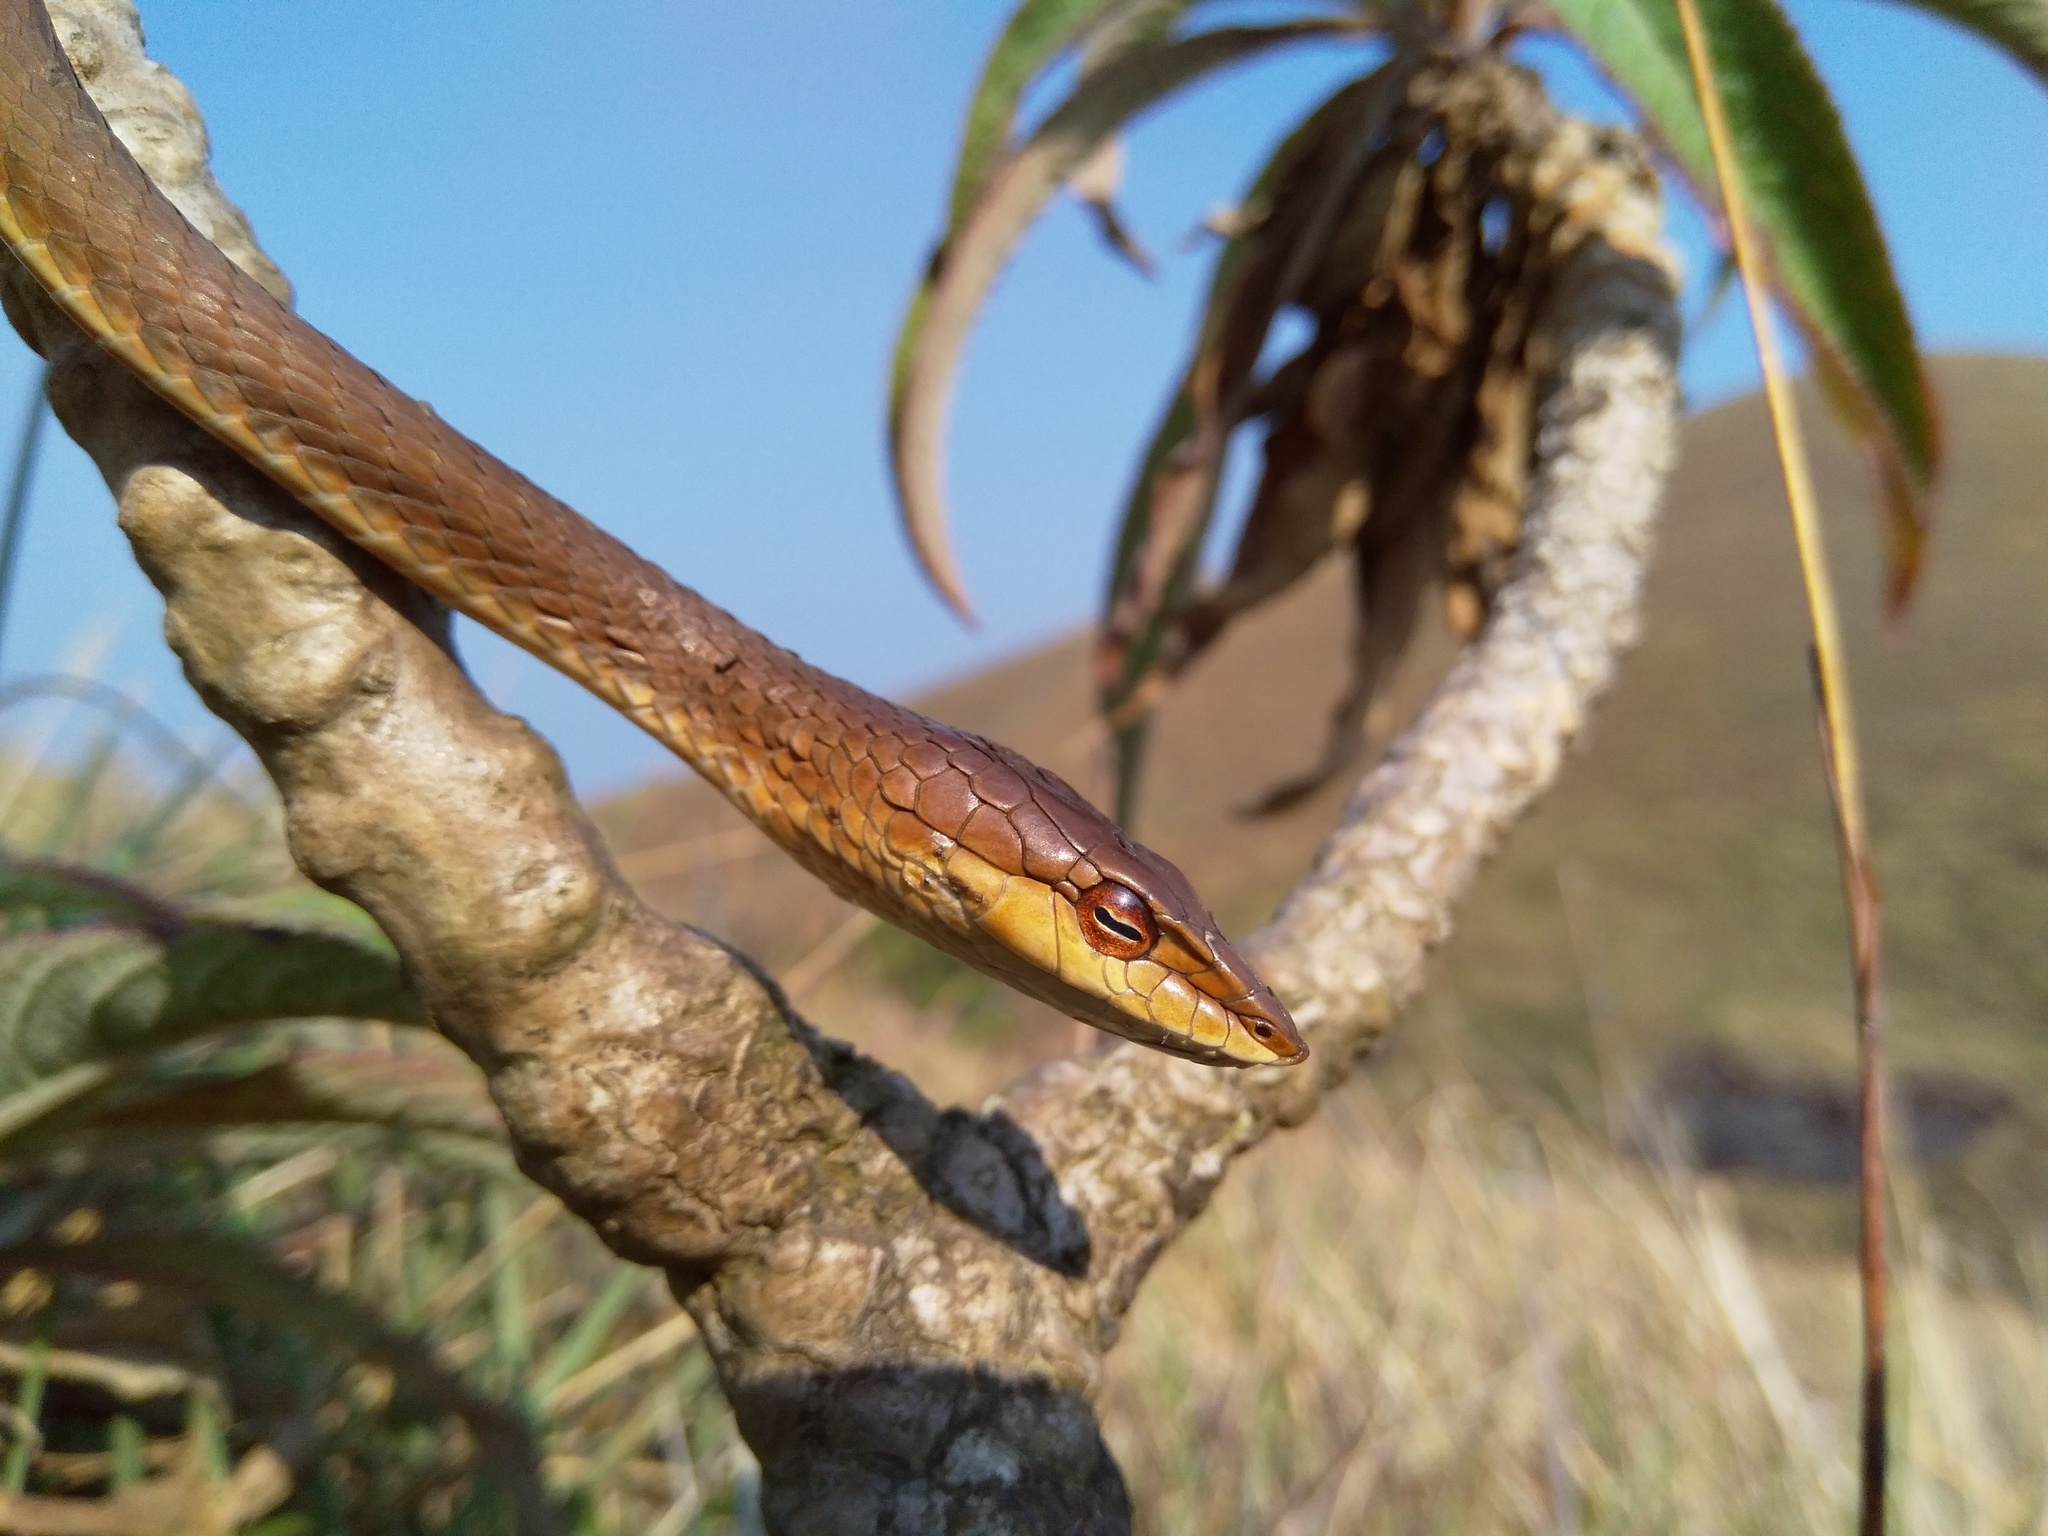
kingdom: Animalia
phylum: Chordata
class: Squamata
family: Colubridae
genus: Ahaetulla
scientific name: Ahaetulla dispar
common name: Günther's vine snake
